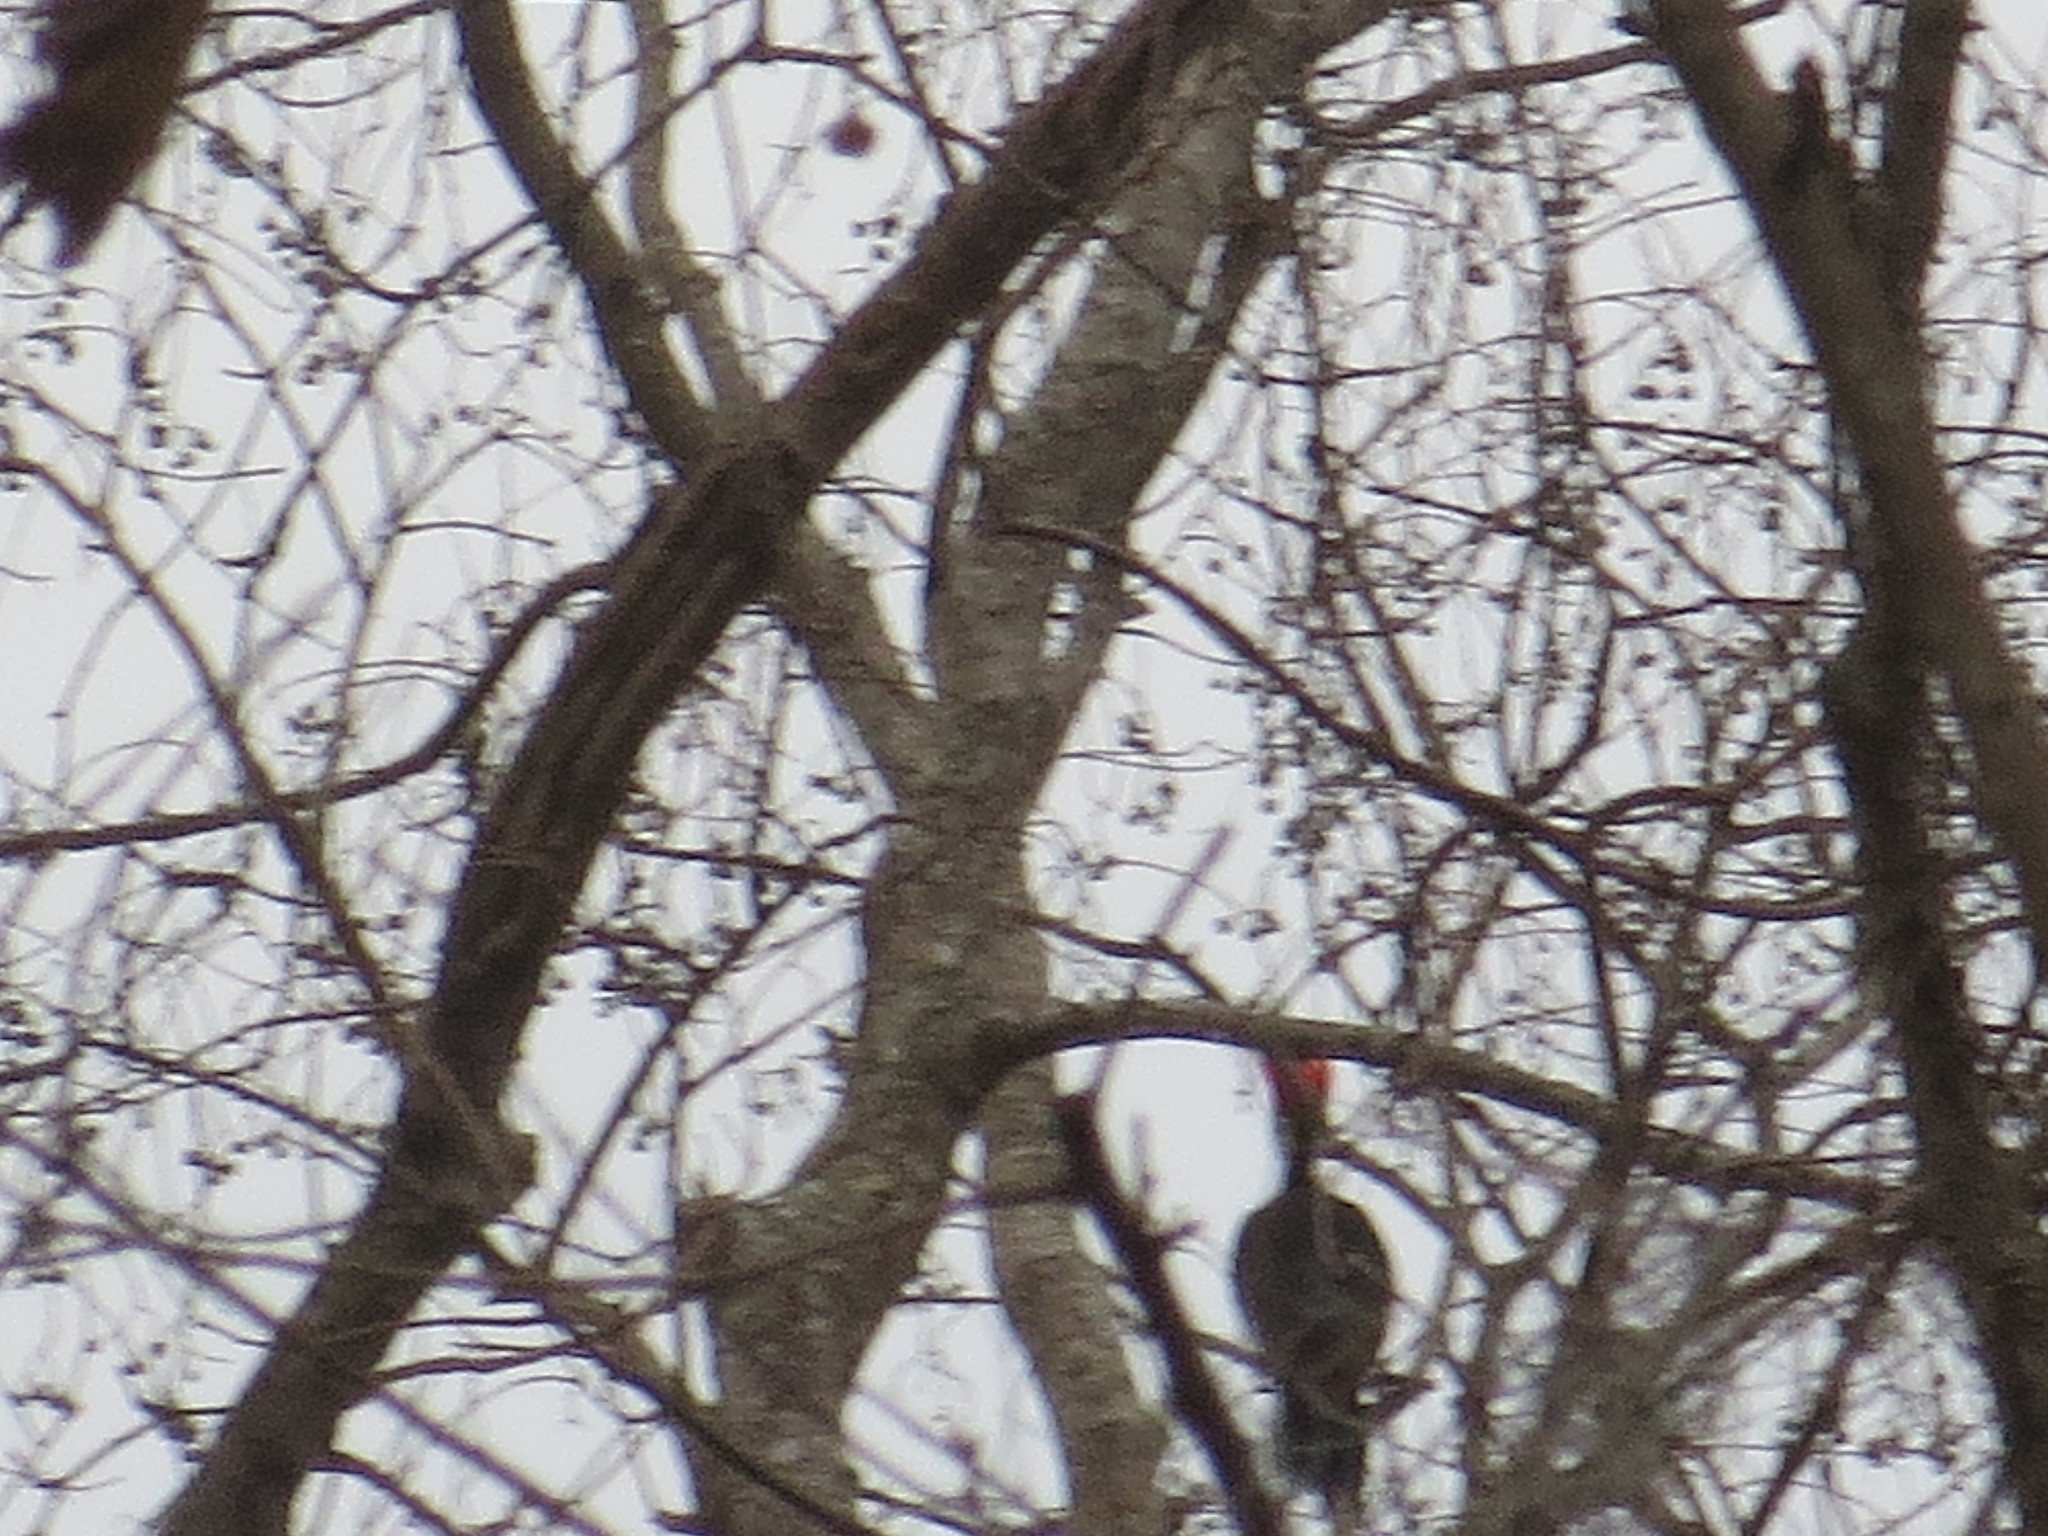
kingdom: Animalia
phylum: Chordata
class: Aves
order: Piciformes
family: Picidae
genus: Dryocopus
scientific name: Dryocopus pileatus
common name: Pileated woodpecker
